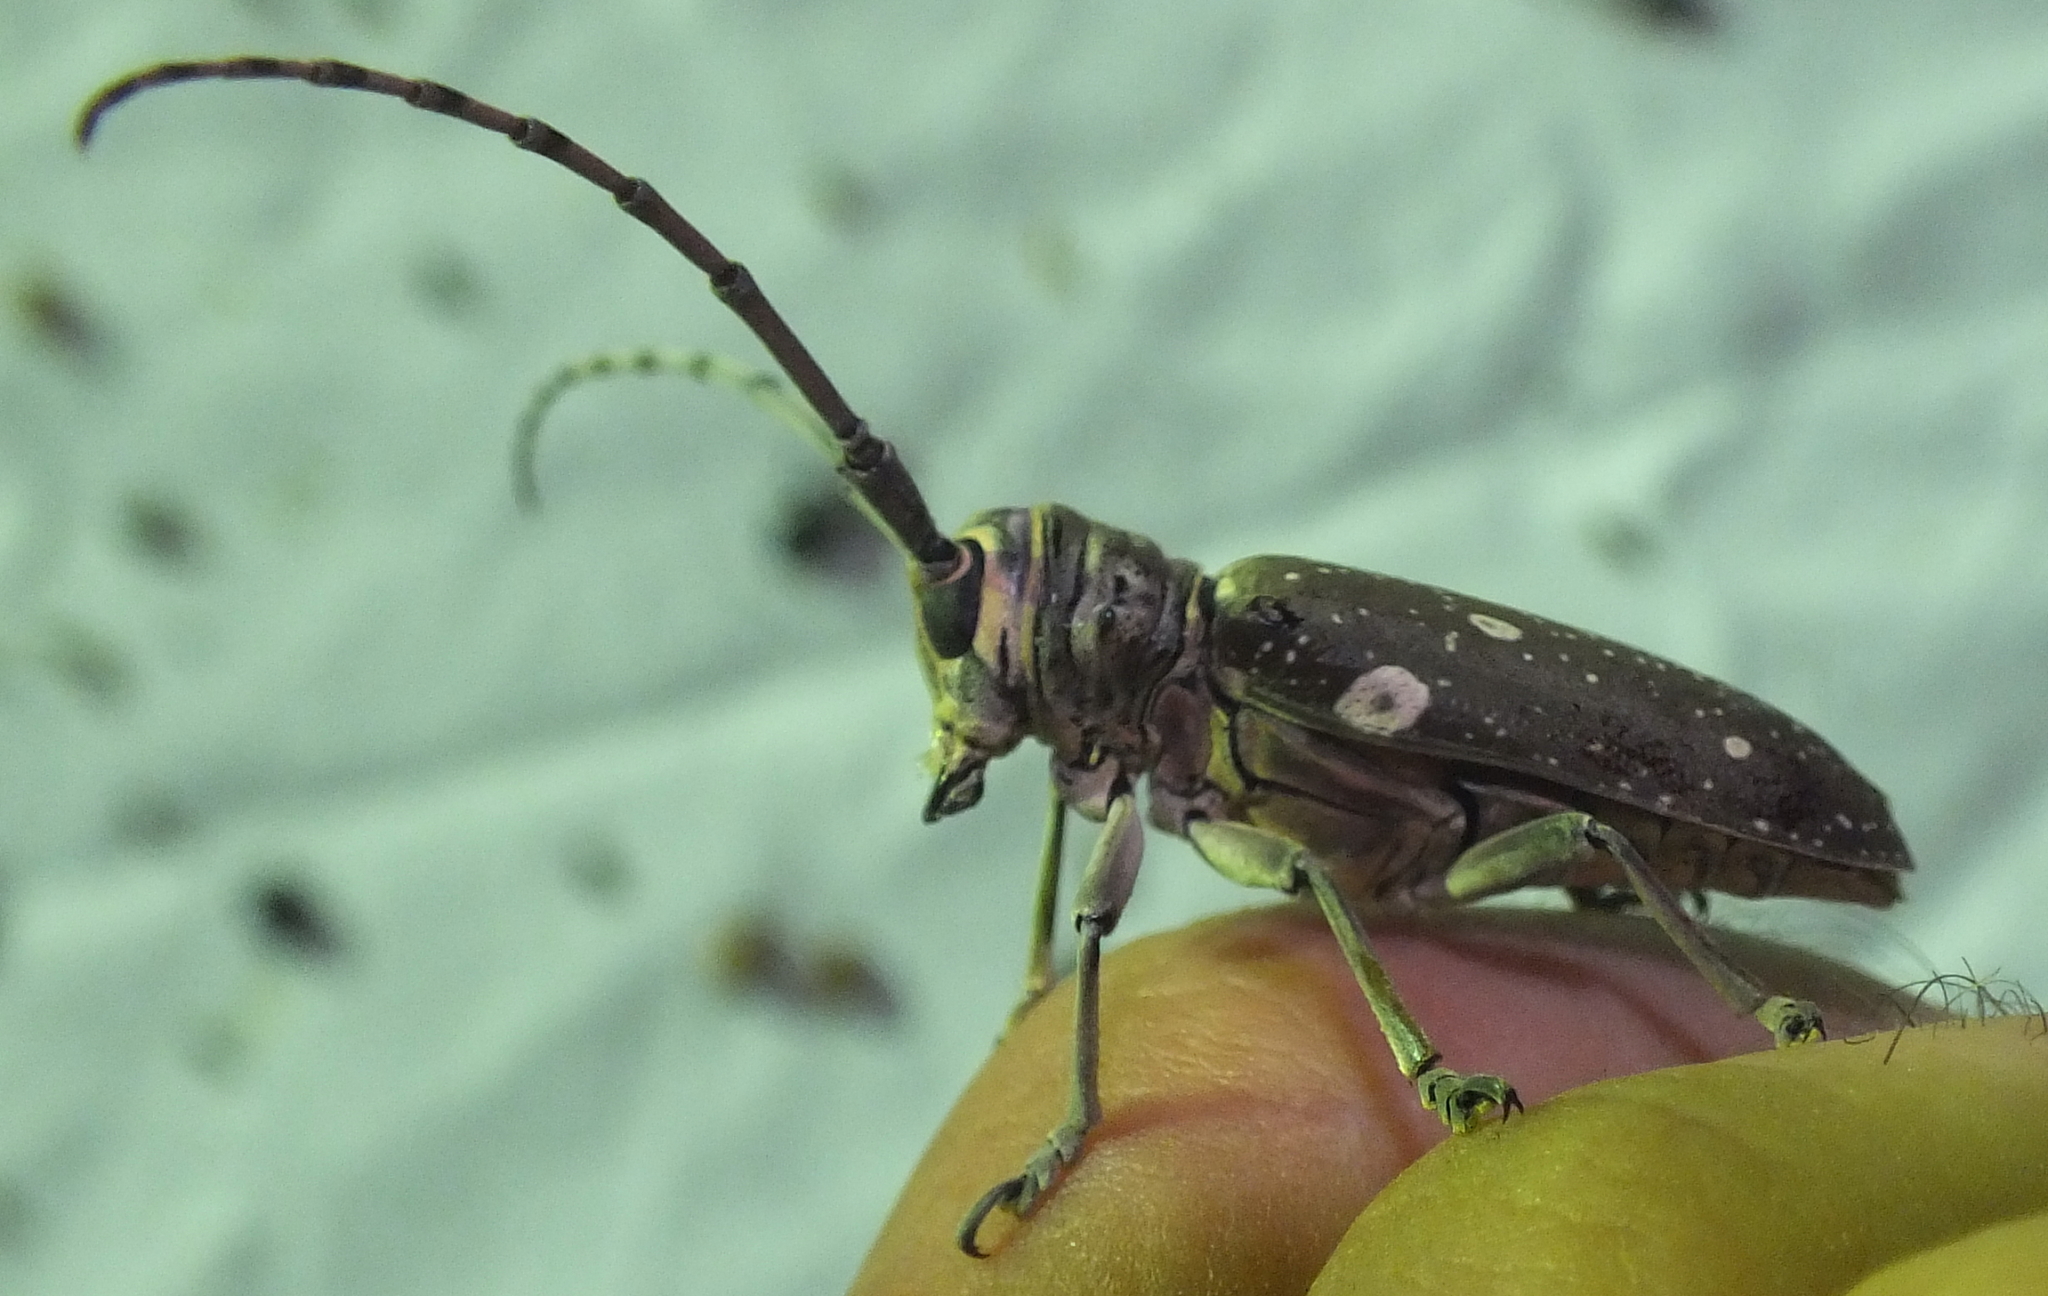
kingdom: Animalia
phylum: Arthropoda
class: Insecta
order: Coleoptera
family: Cerambycidae
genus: Prosopocera
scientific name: Prosopocera dejeani
